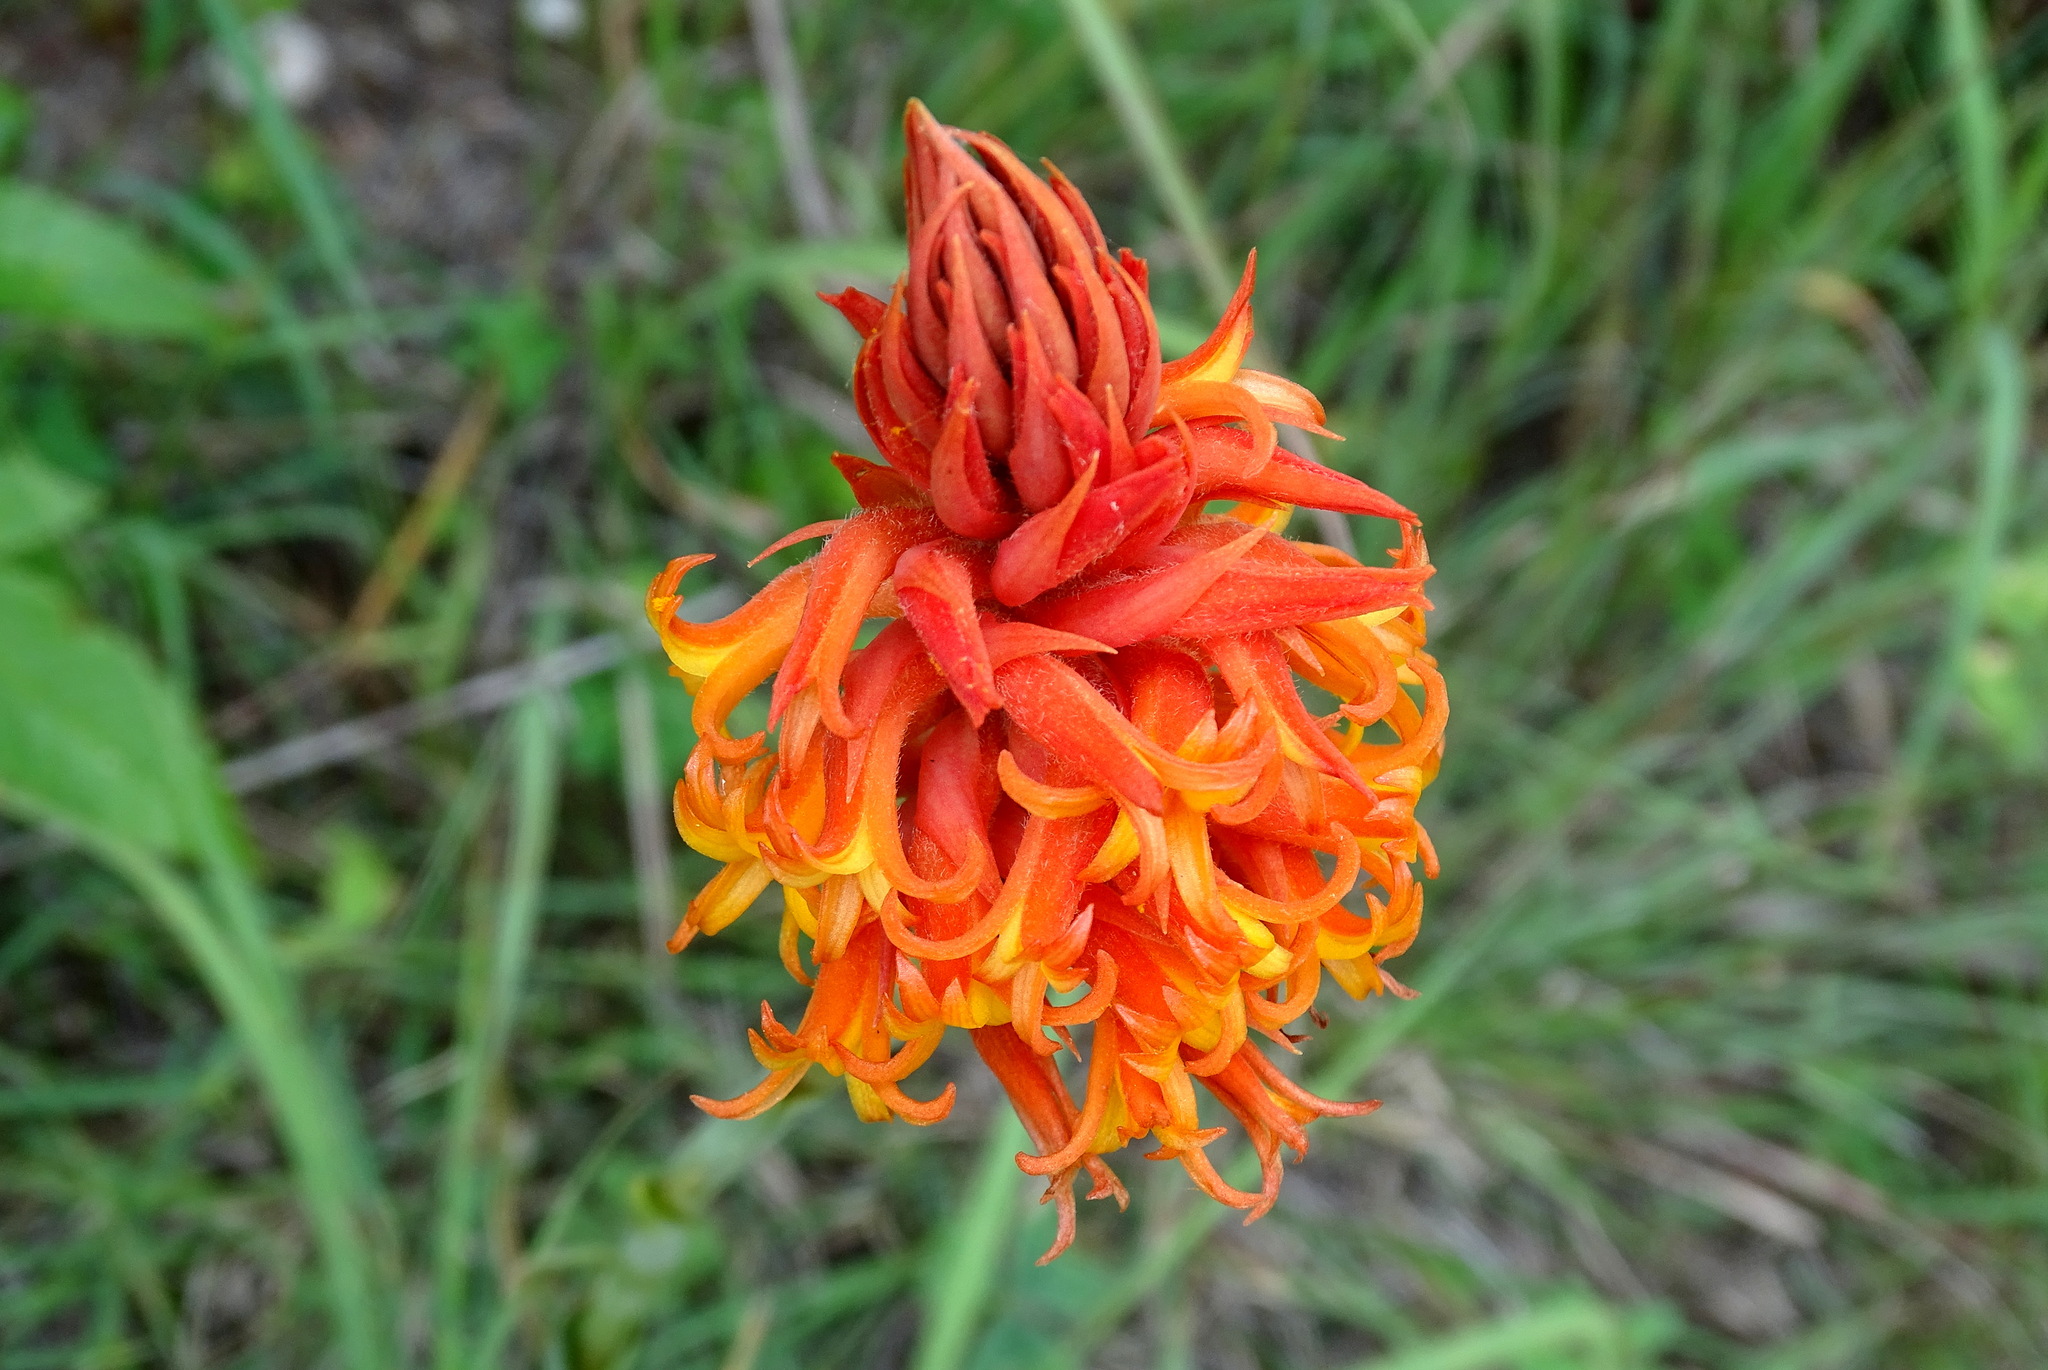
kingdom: Plantae
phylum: Tracheophyta
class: Liliopsida
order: Asparagales
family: Orchidaceae
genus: Dichromanthus
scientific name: Dichromanthus cinnabarinus
